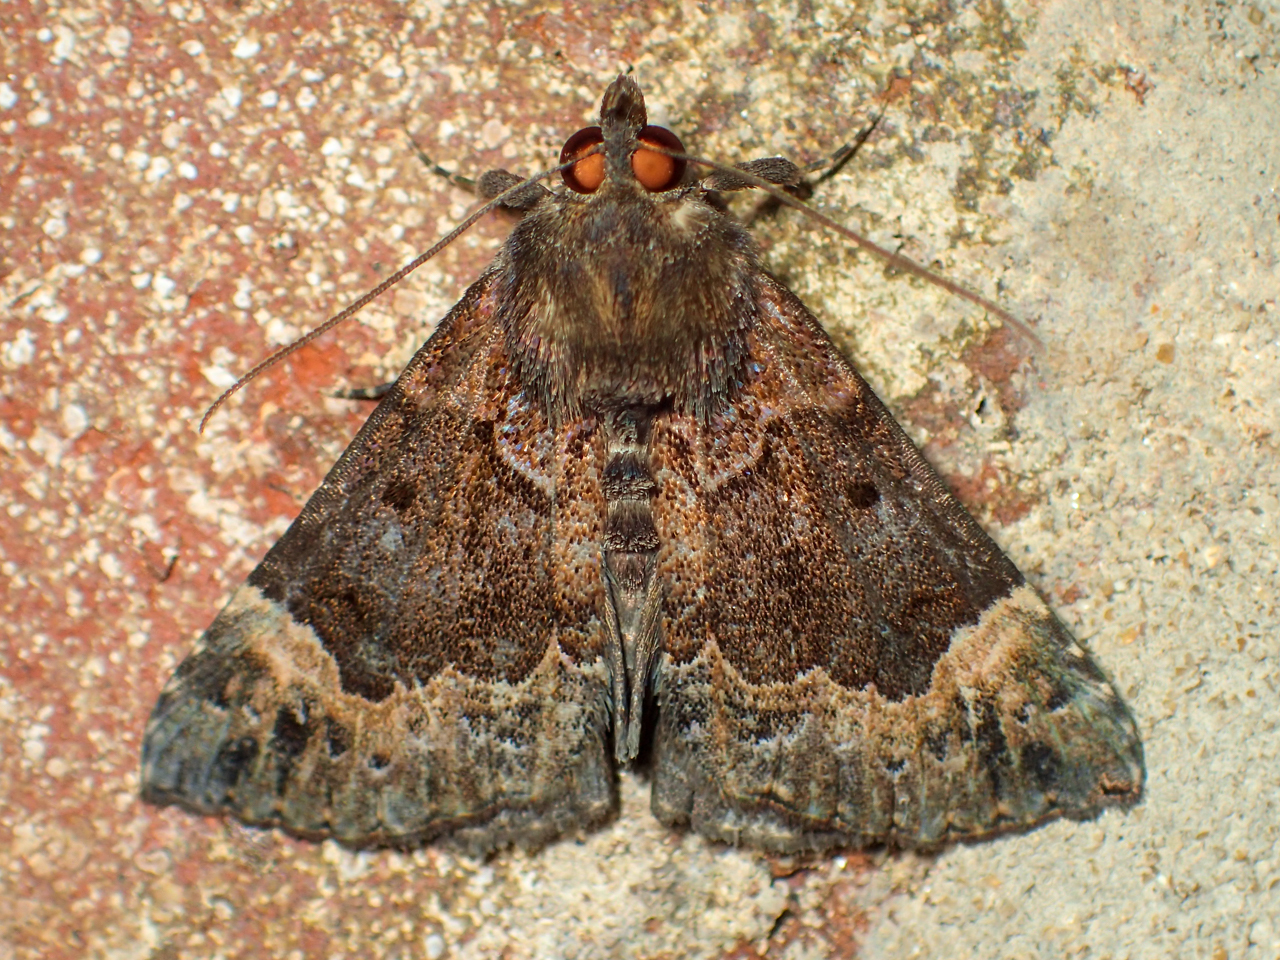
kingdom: Animalia
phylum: Arthropoda
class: Insecta
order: Lepidoptera
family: Erebidae
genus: Hypena
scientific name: Hypena palparia
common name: Mottled bomolocha moth
